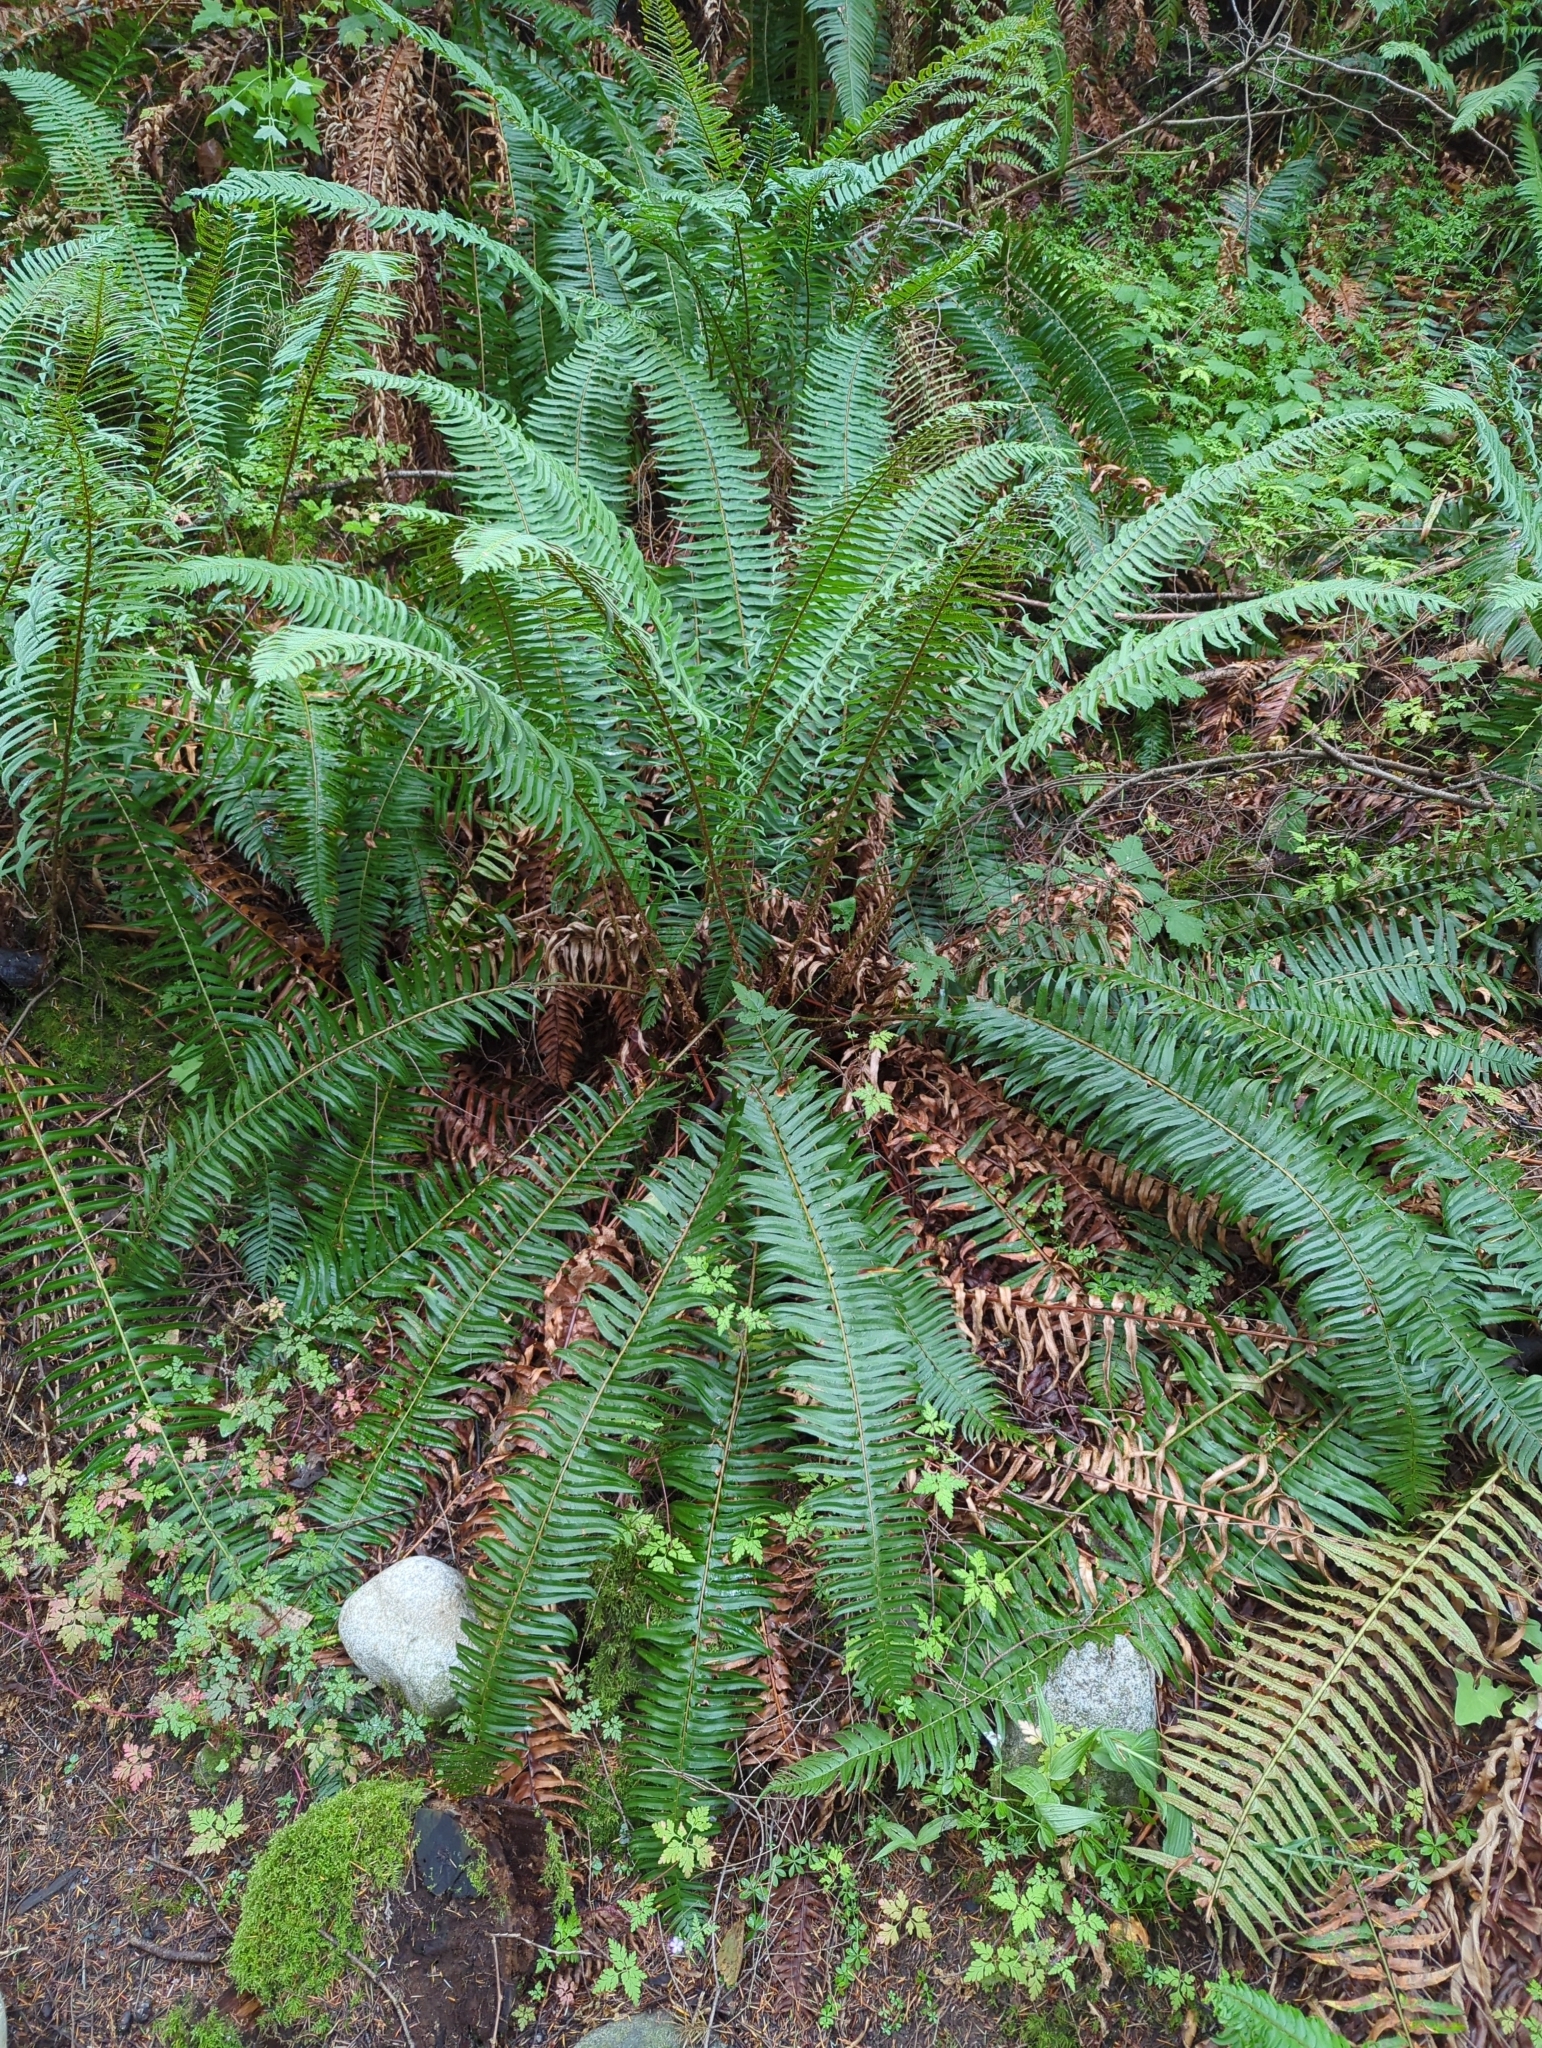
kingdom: Plantae
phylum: Tracheophyta
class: Polypodiopsida
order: Polypodiales
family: Dryopteridaceae
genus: Polystichum
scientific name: Polystichum munitum
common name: Western sword-fern
